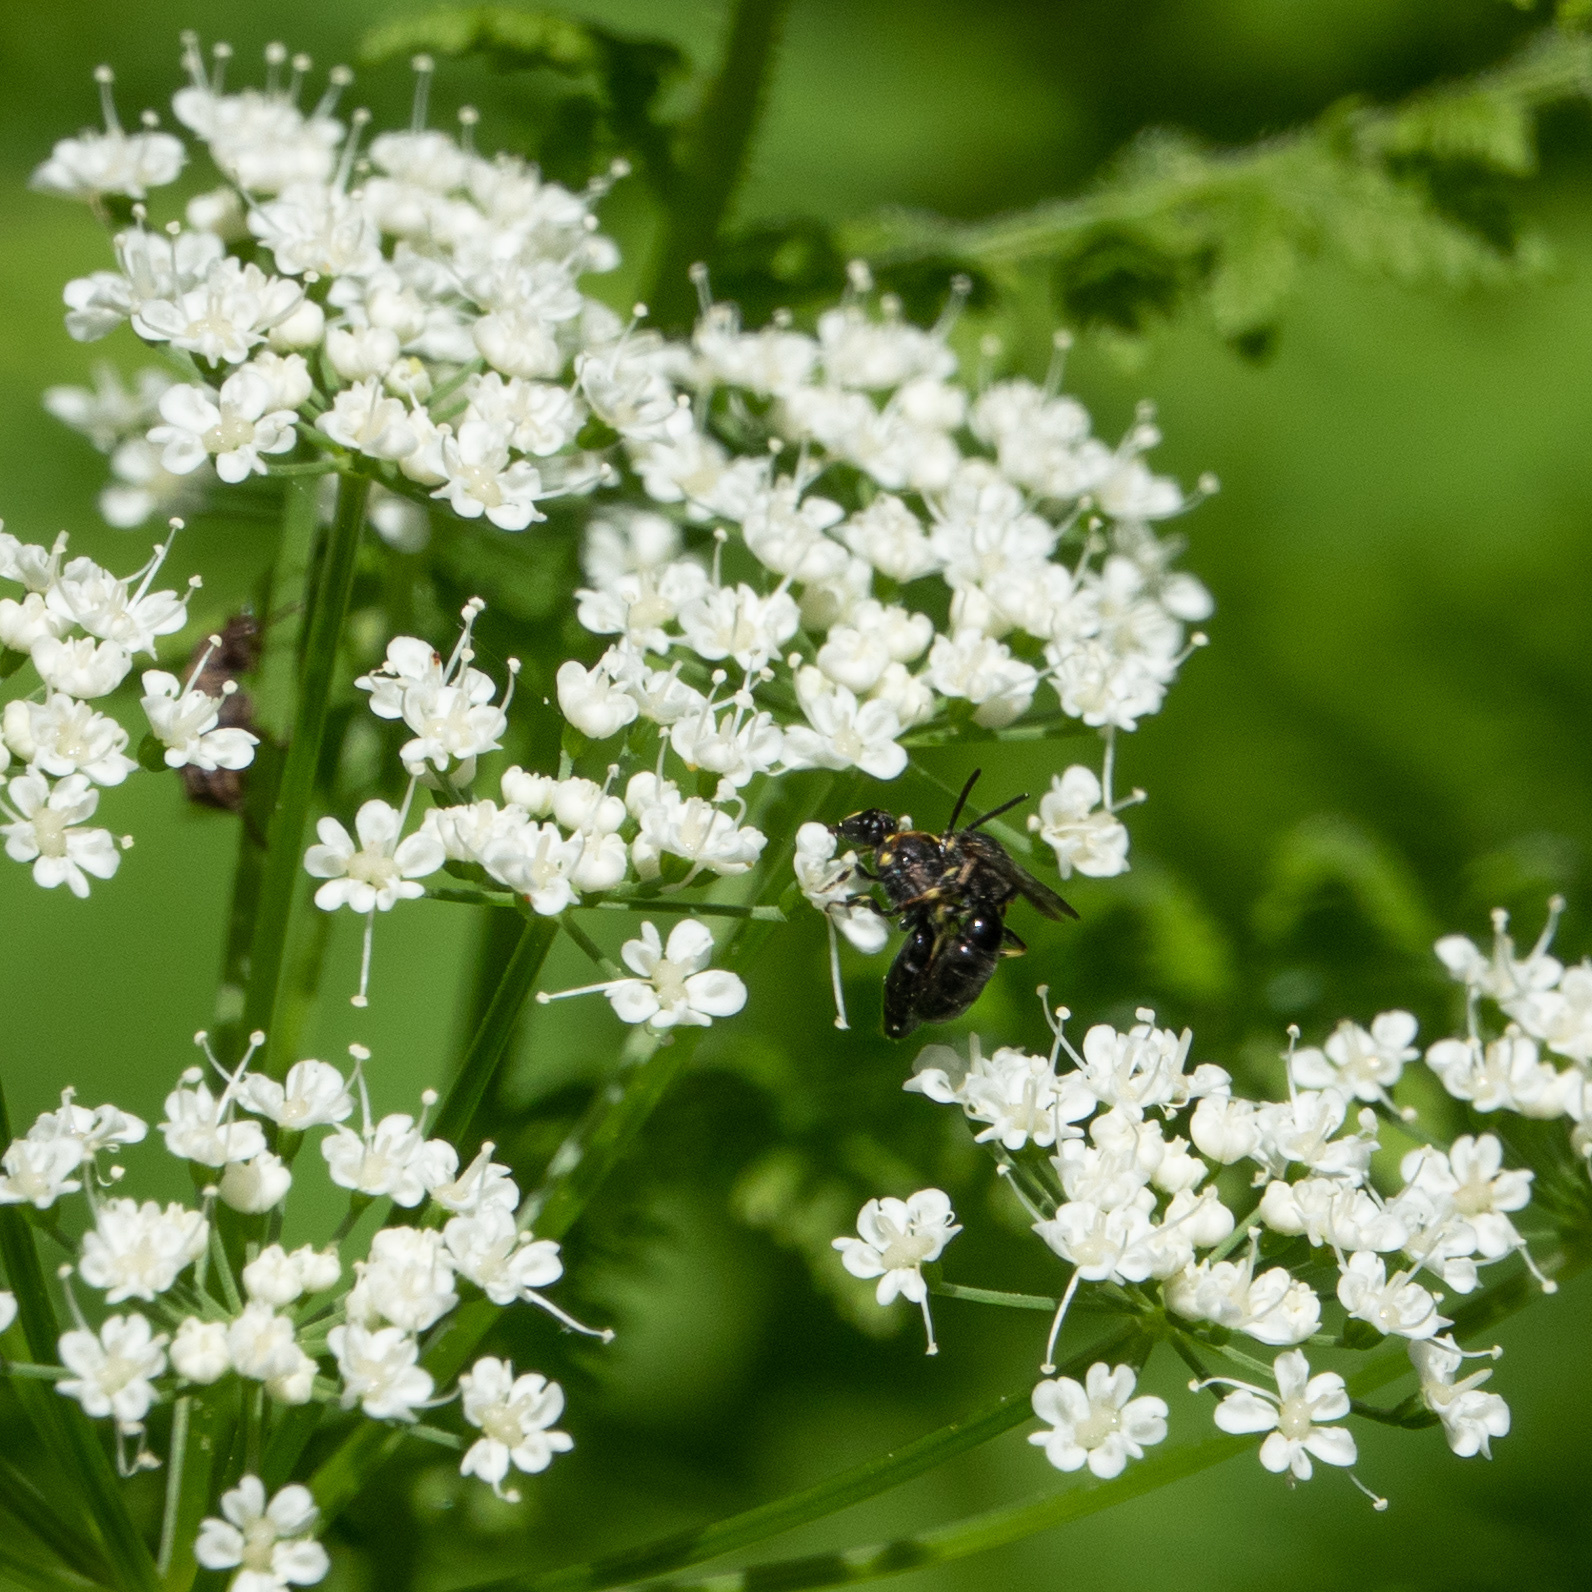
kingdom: Animalia
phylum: Arthropoda
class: Insecta
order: Hymenoptera
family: Colletidae
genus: Hylaeus
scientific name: Hylaeus modestus
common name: Yellow-faced bee
